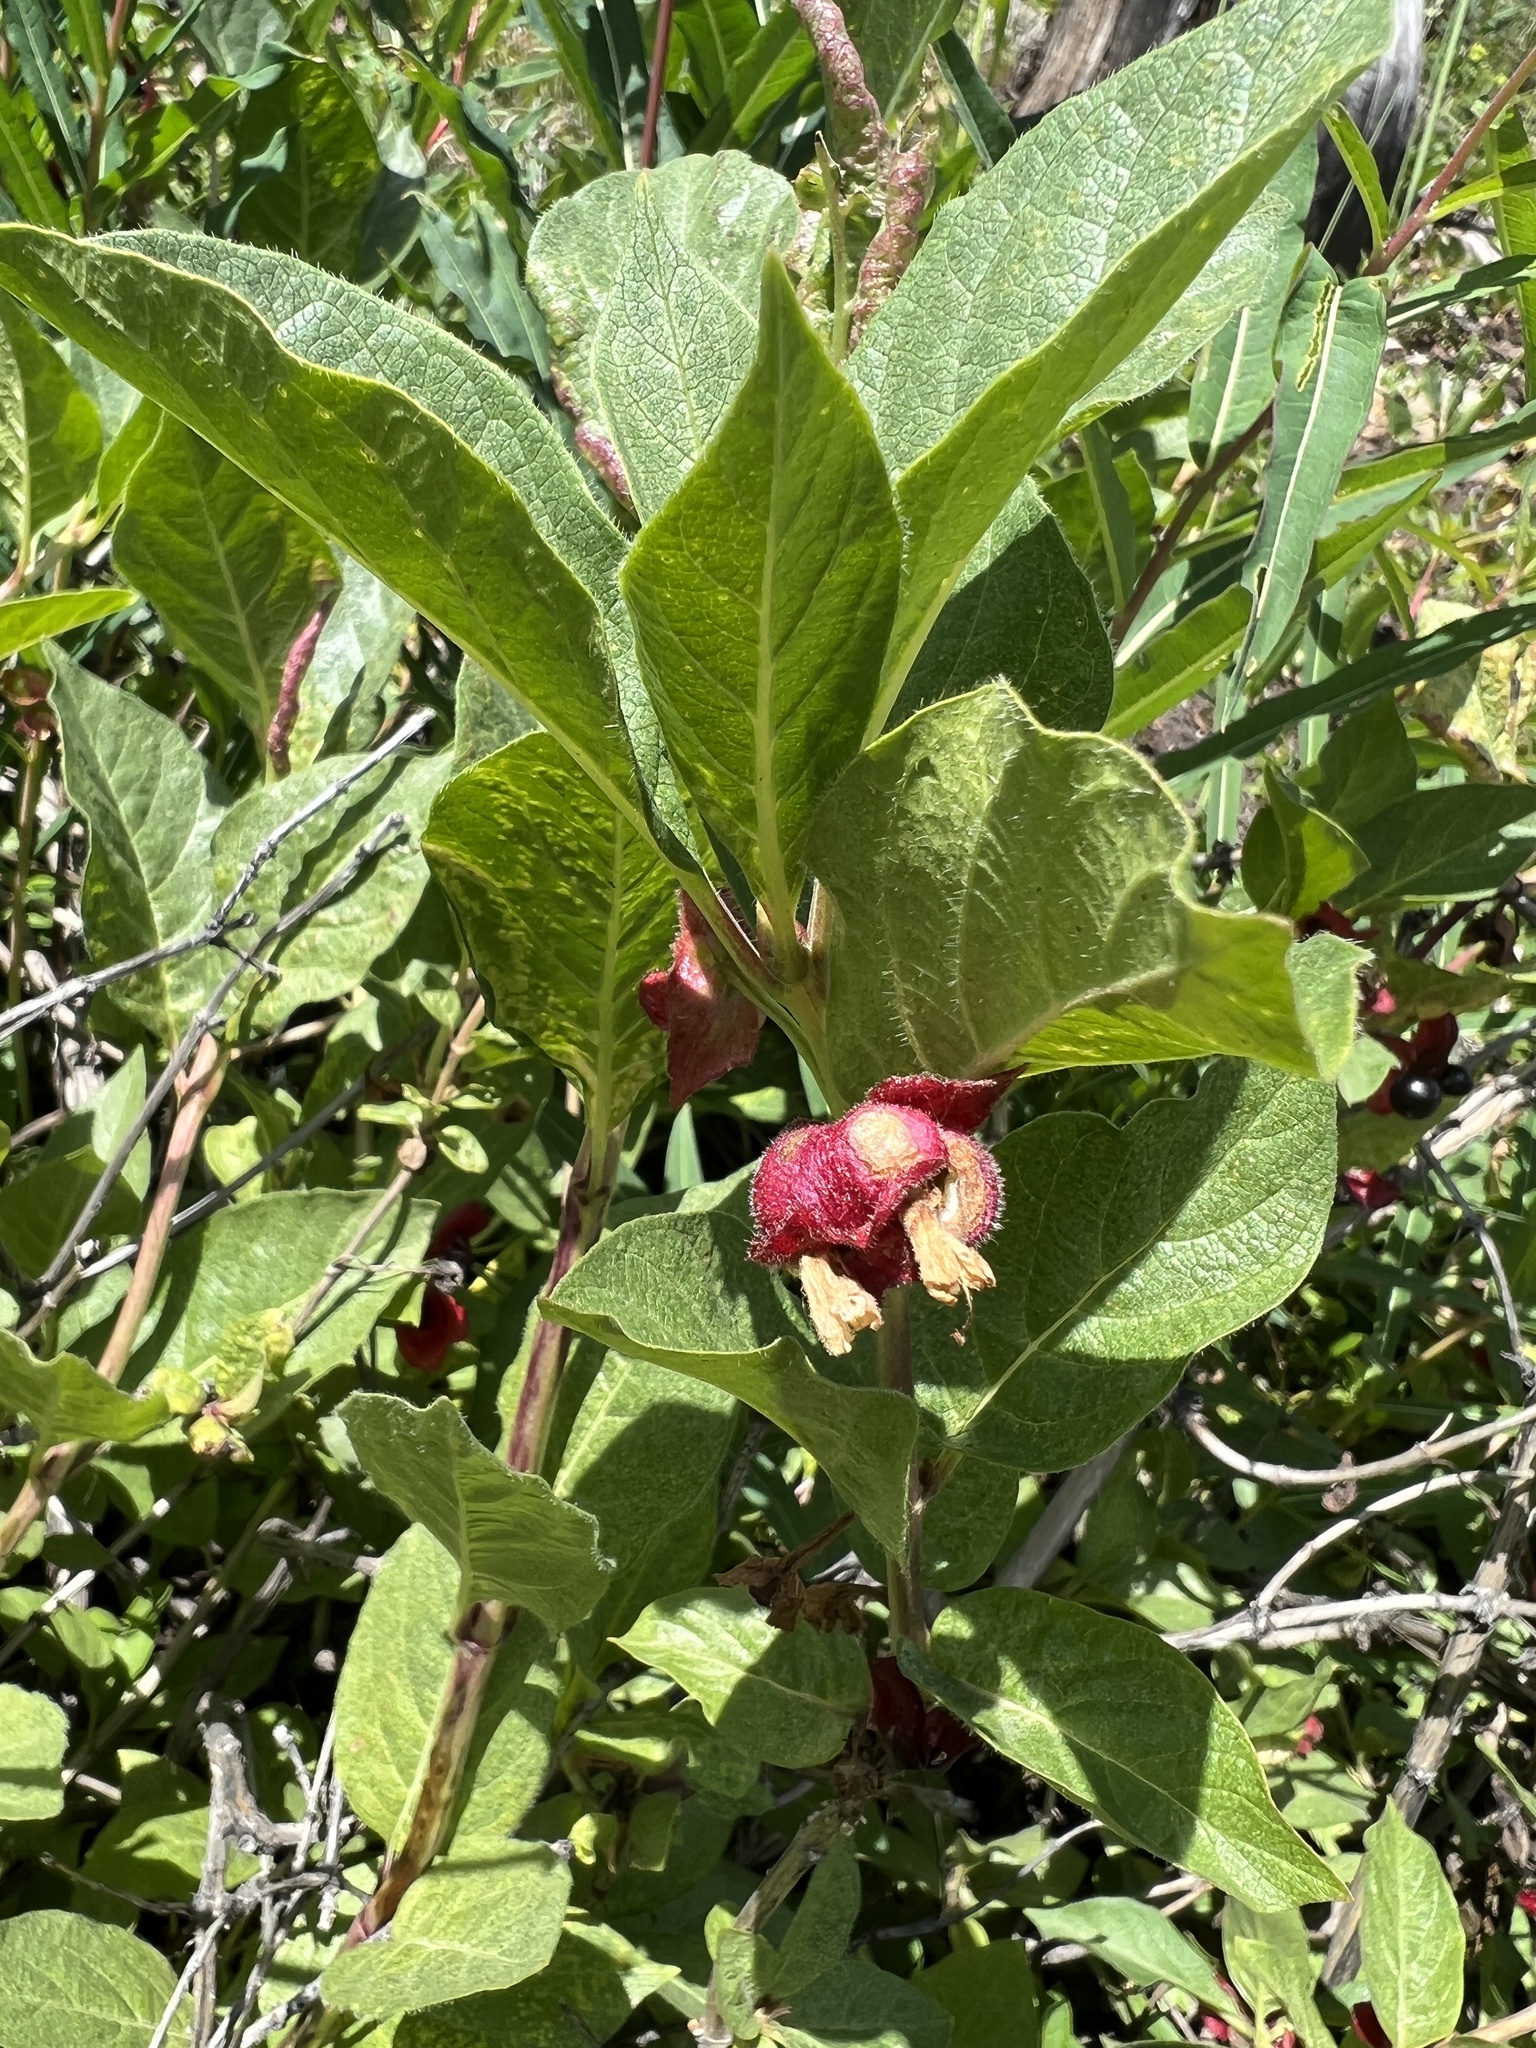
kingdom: Plantae
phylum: Tracheophyta
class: Magnoliopsida
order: Dipsacales
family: Caprifoliaceae
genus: Lonicera
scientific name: Lonicera involucrata
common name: Californian honeysuckle
